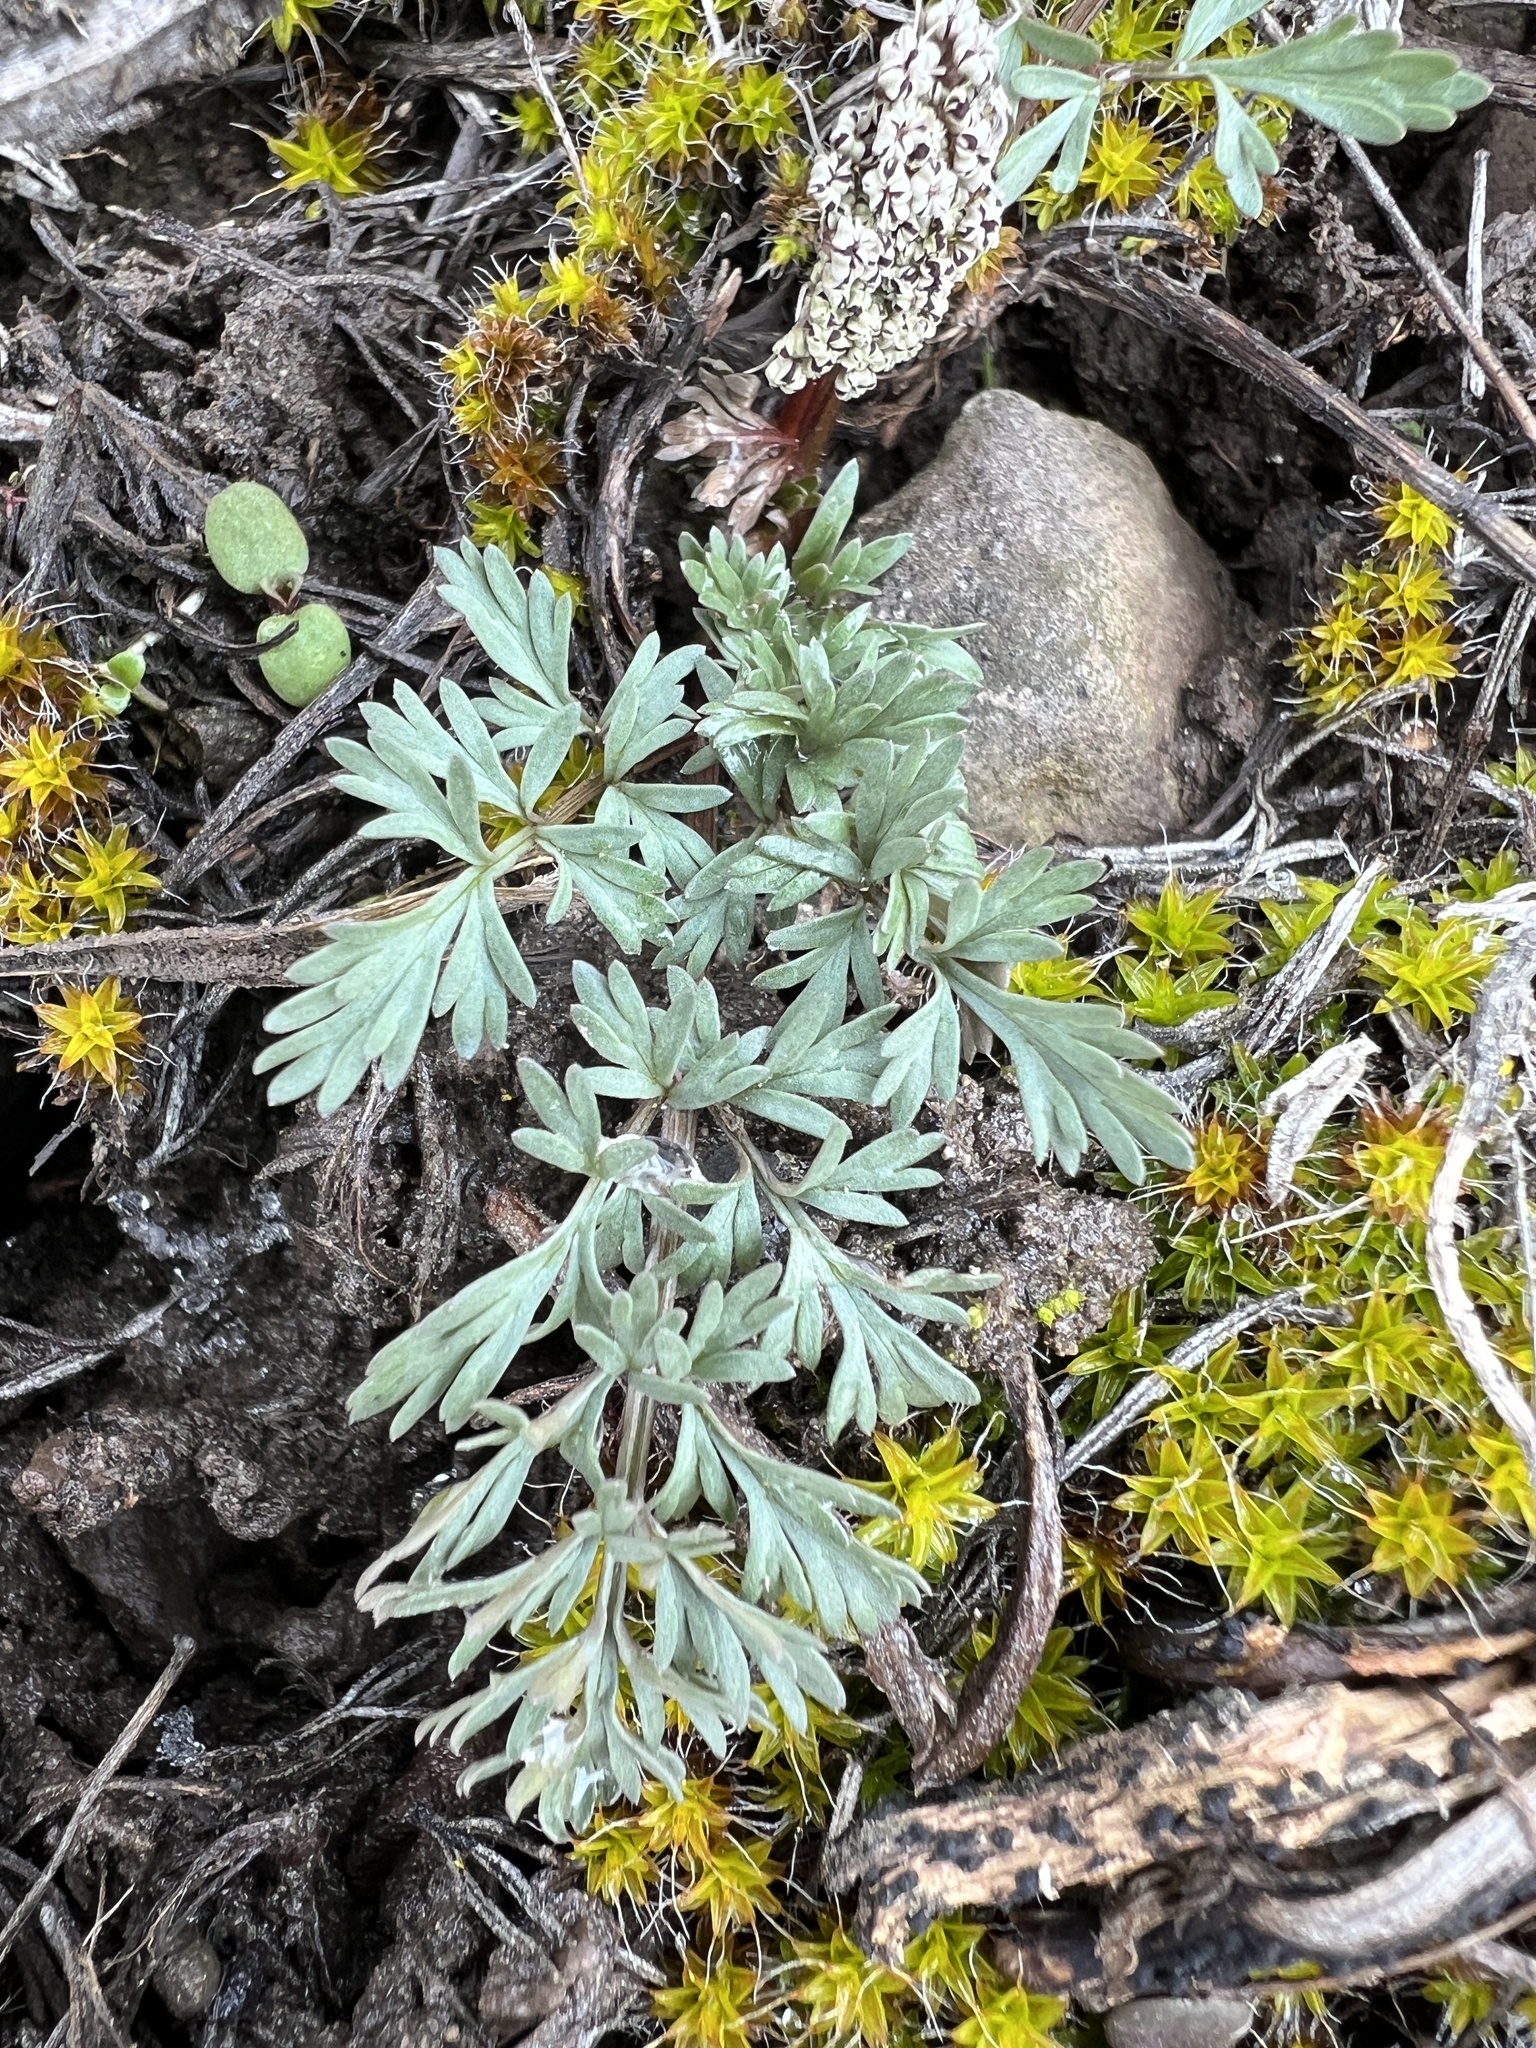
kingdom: Plantae
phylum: Tracheophyta
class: Magnoliopsida
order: Apiales
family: Apiaceae
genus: Lomatium
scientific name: Lomatium canbyi
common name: Chucklusa
